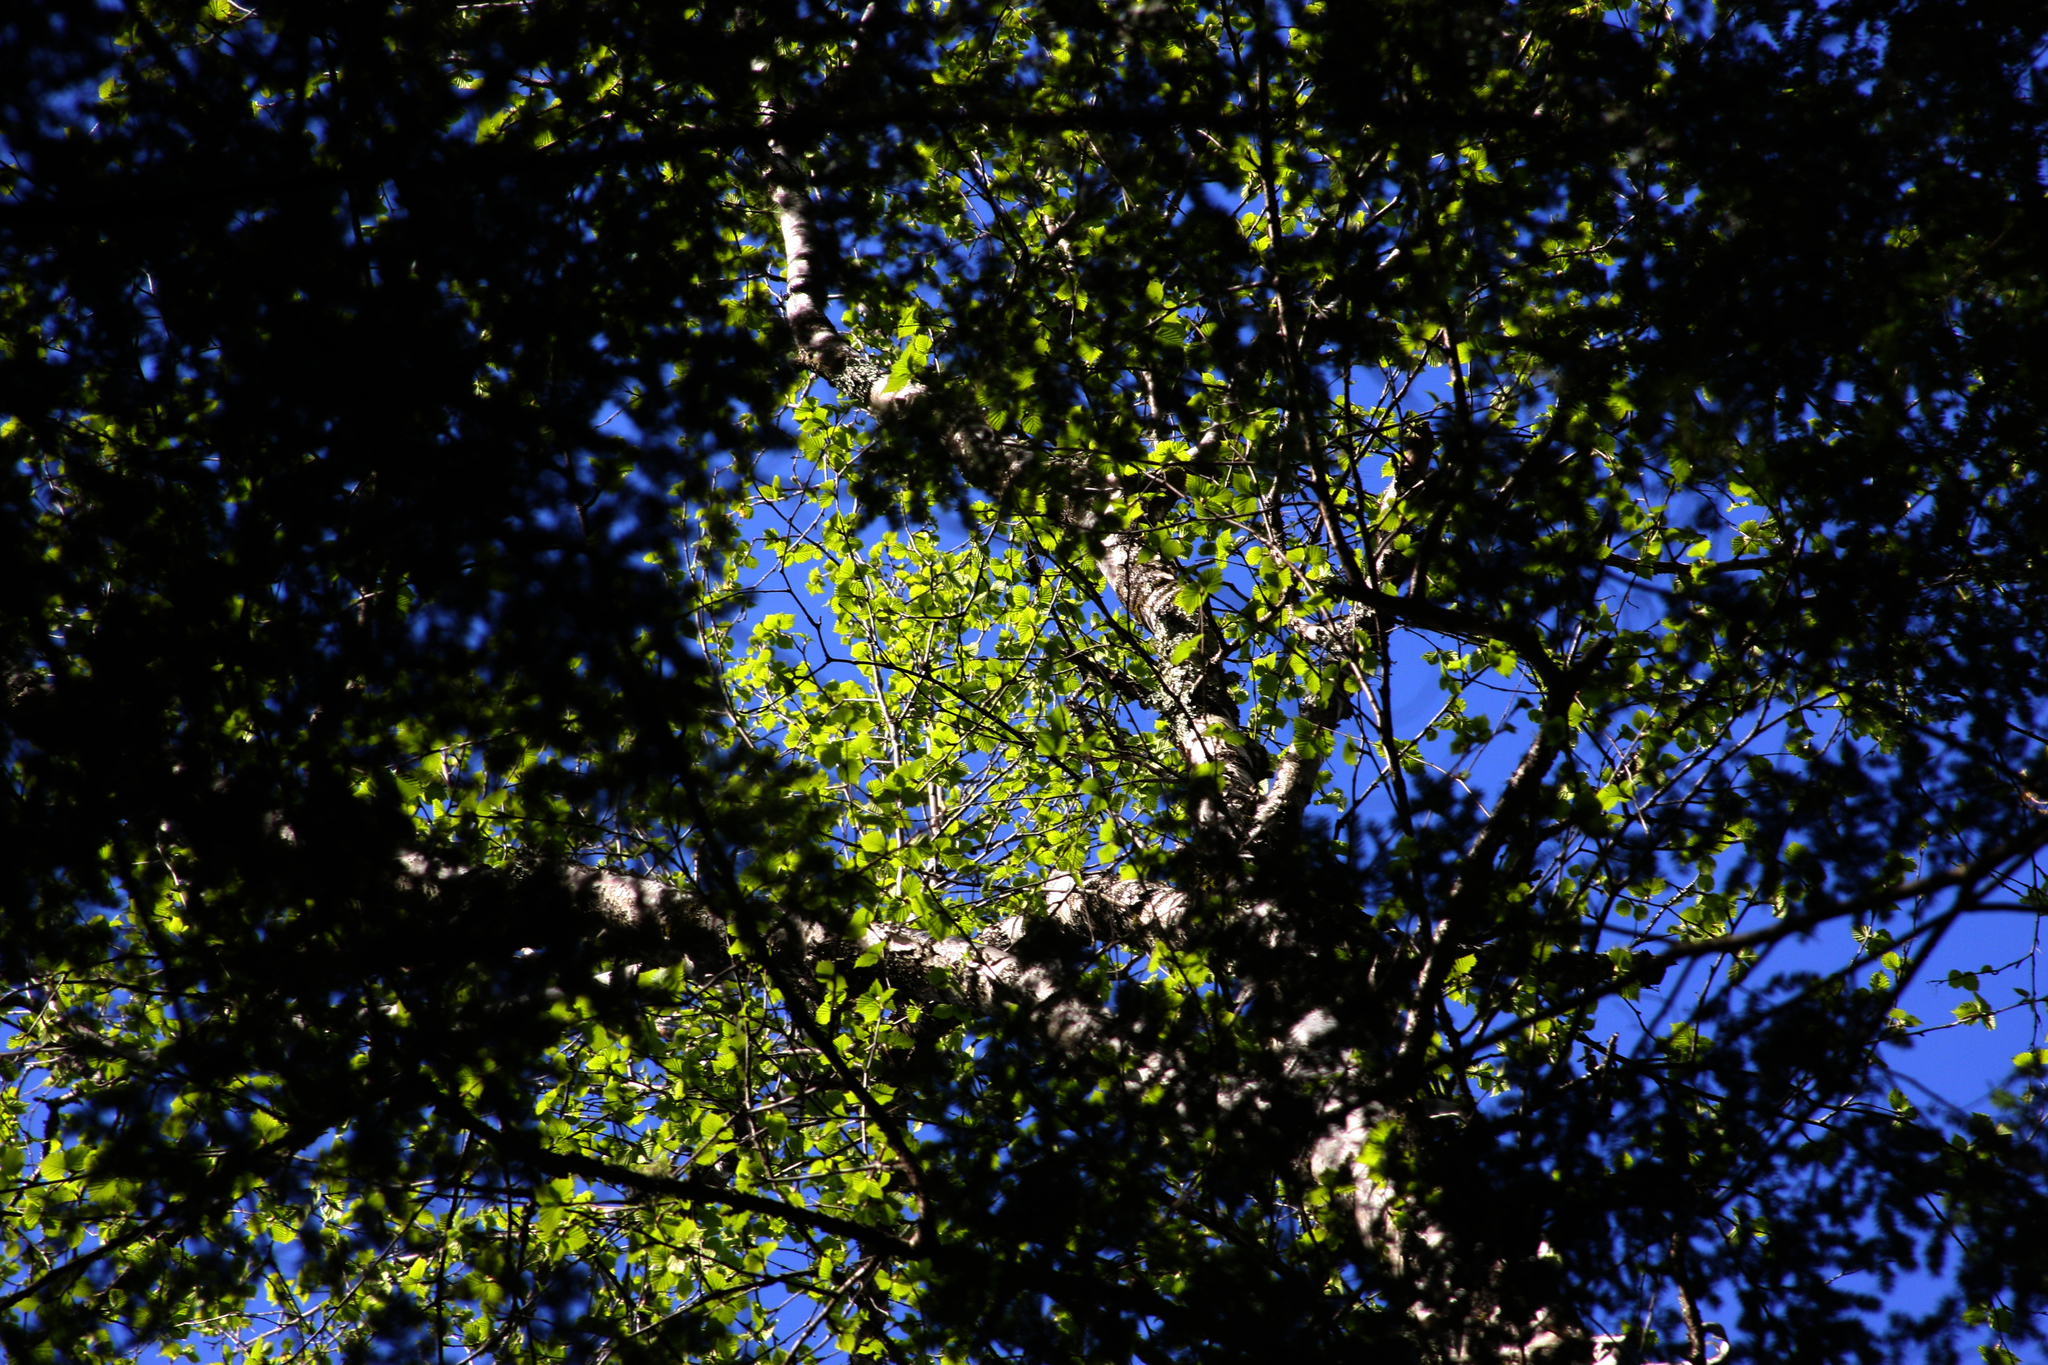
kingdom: Plantae
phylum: Tracheophyta
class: Magnoliopsida
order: Fagales
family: Betulaceae
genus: Betula
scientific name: Betula alleghaniensis
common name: Yellow birch
